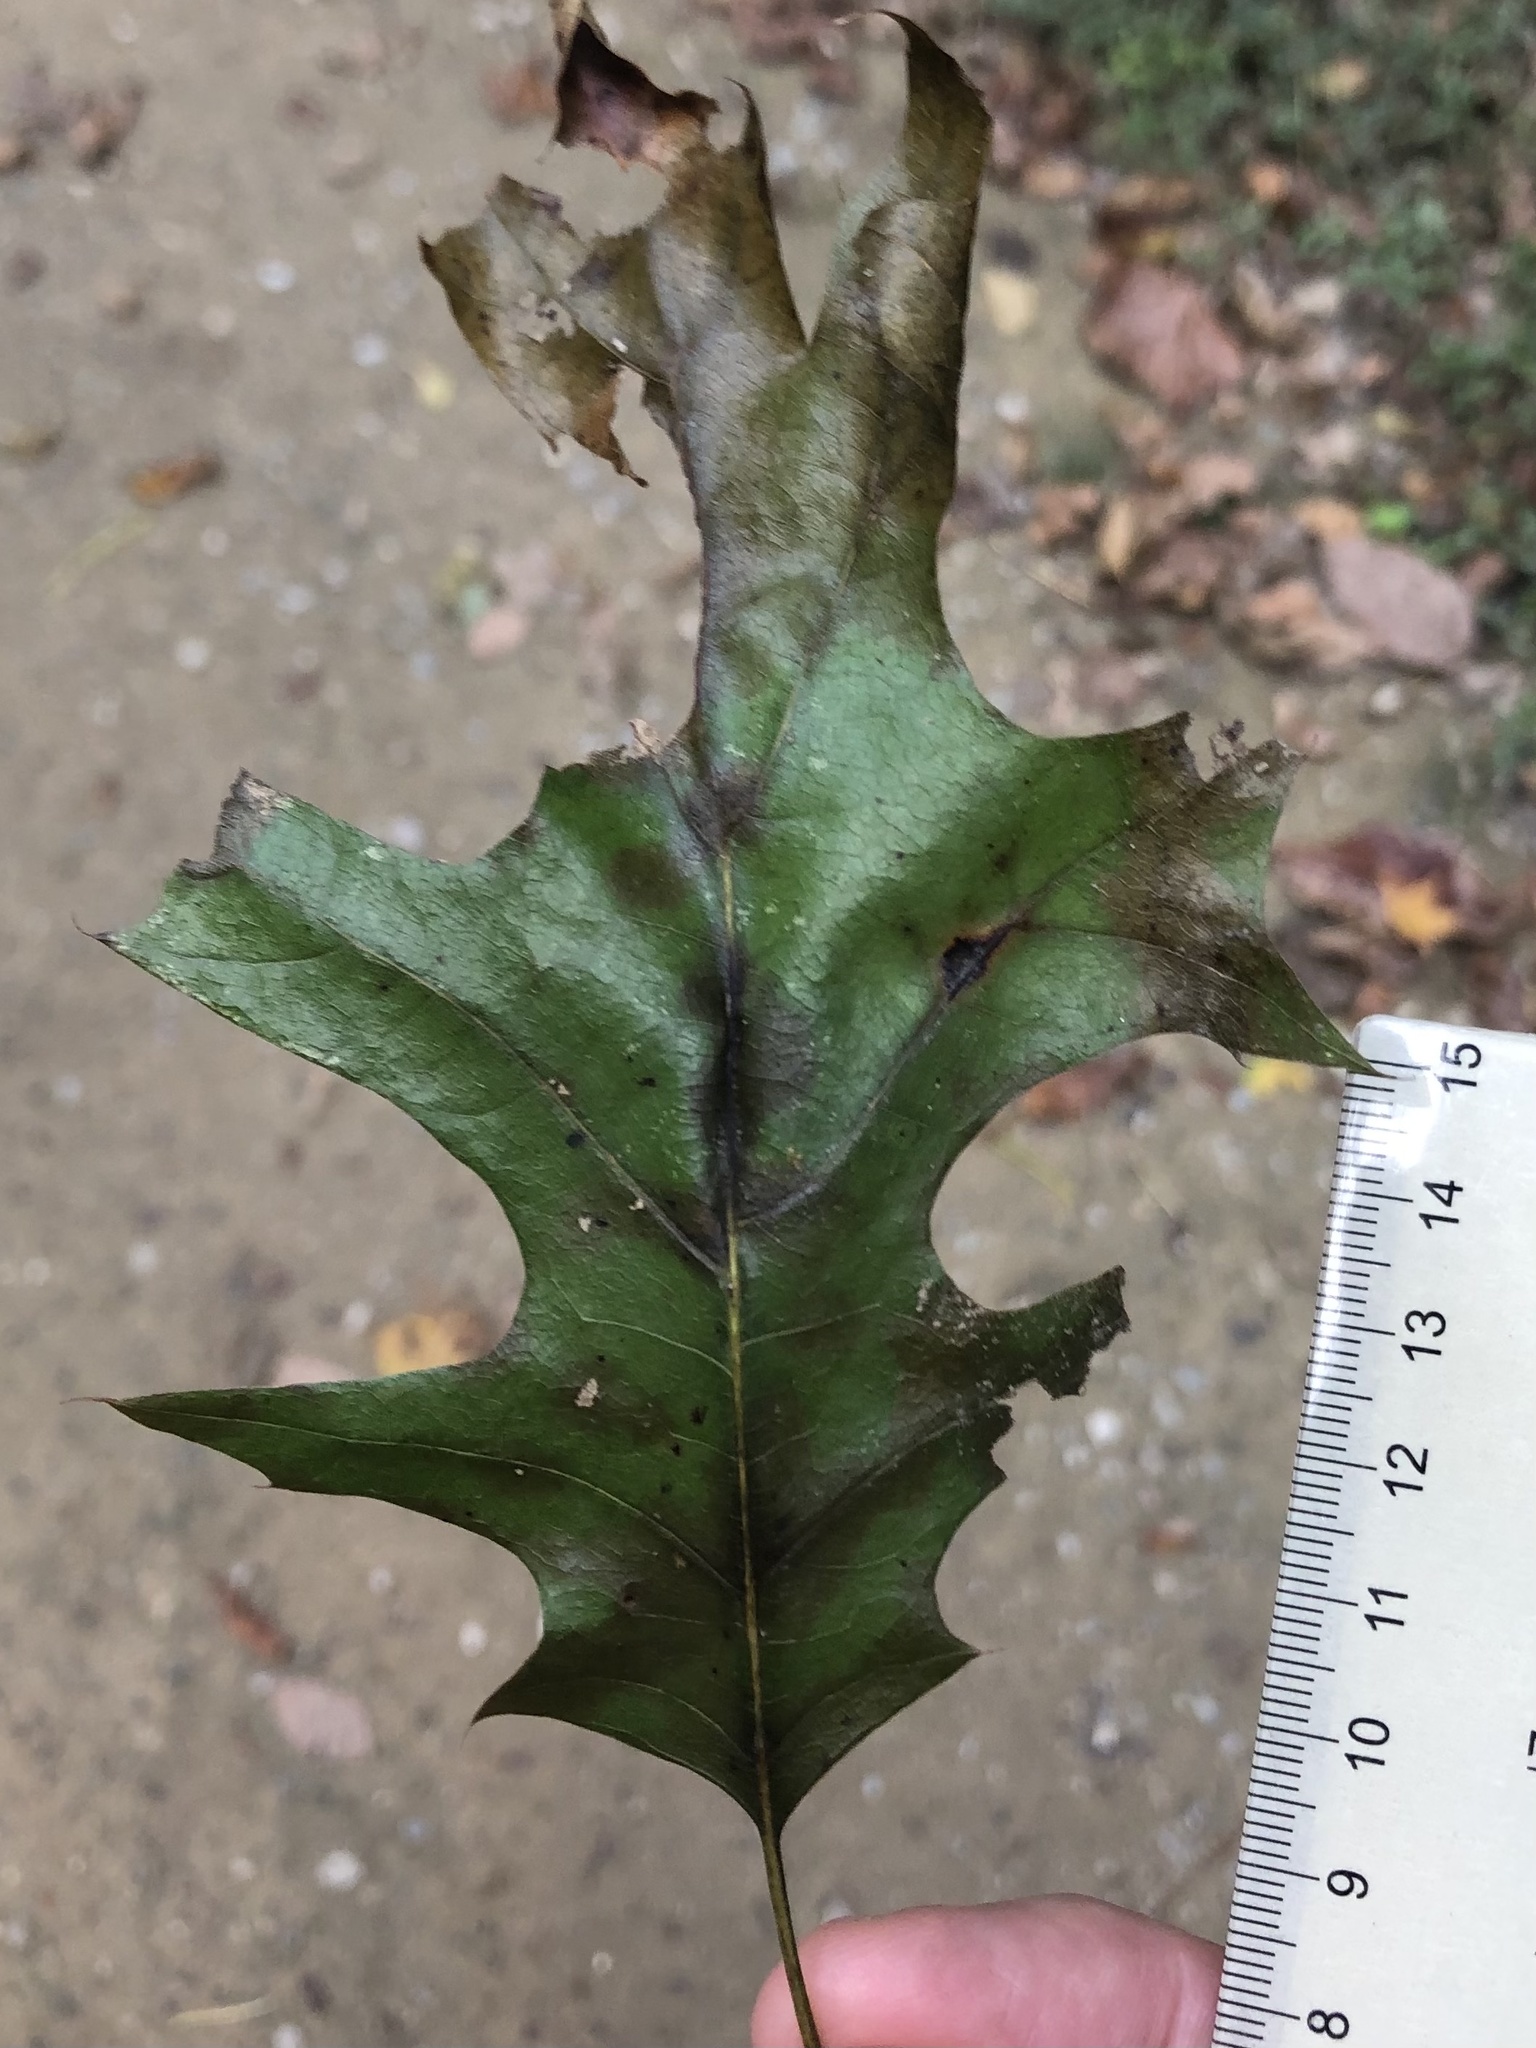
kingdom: Animalia
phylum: Arthropoda
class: Insecta
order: Hymenoptera
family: Cynipidae
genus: Callirhytis
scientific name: Callirhytis
